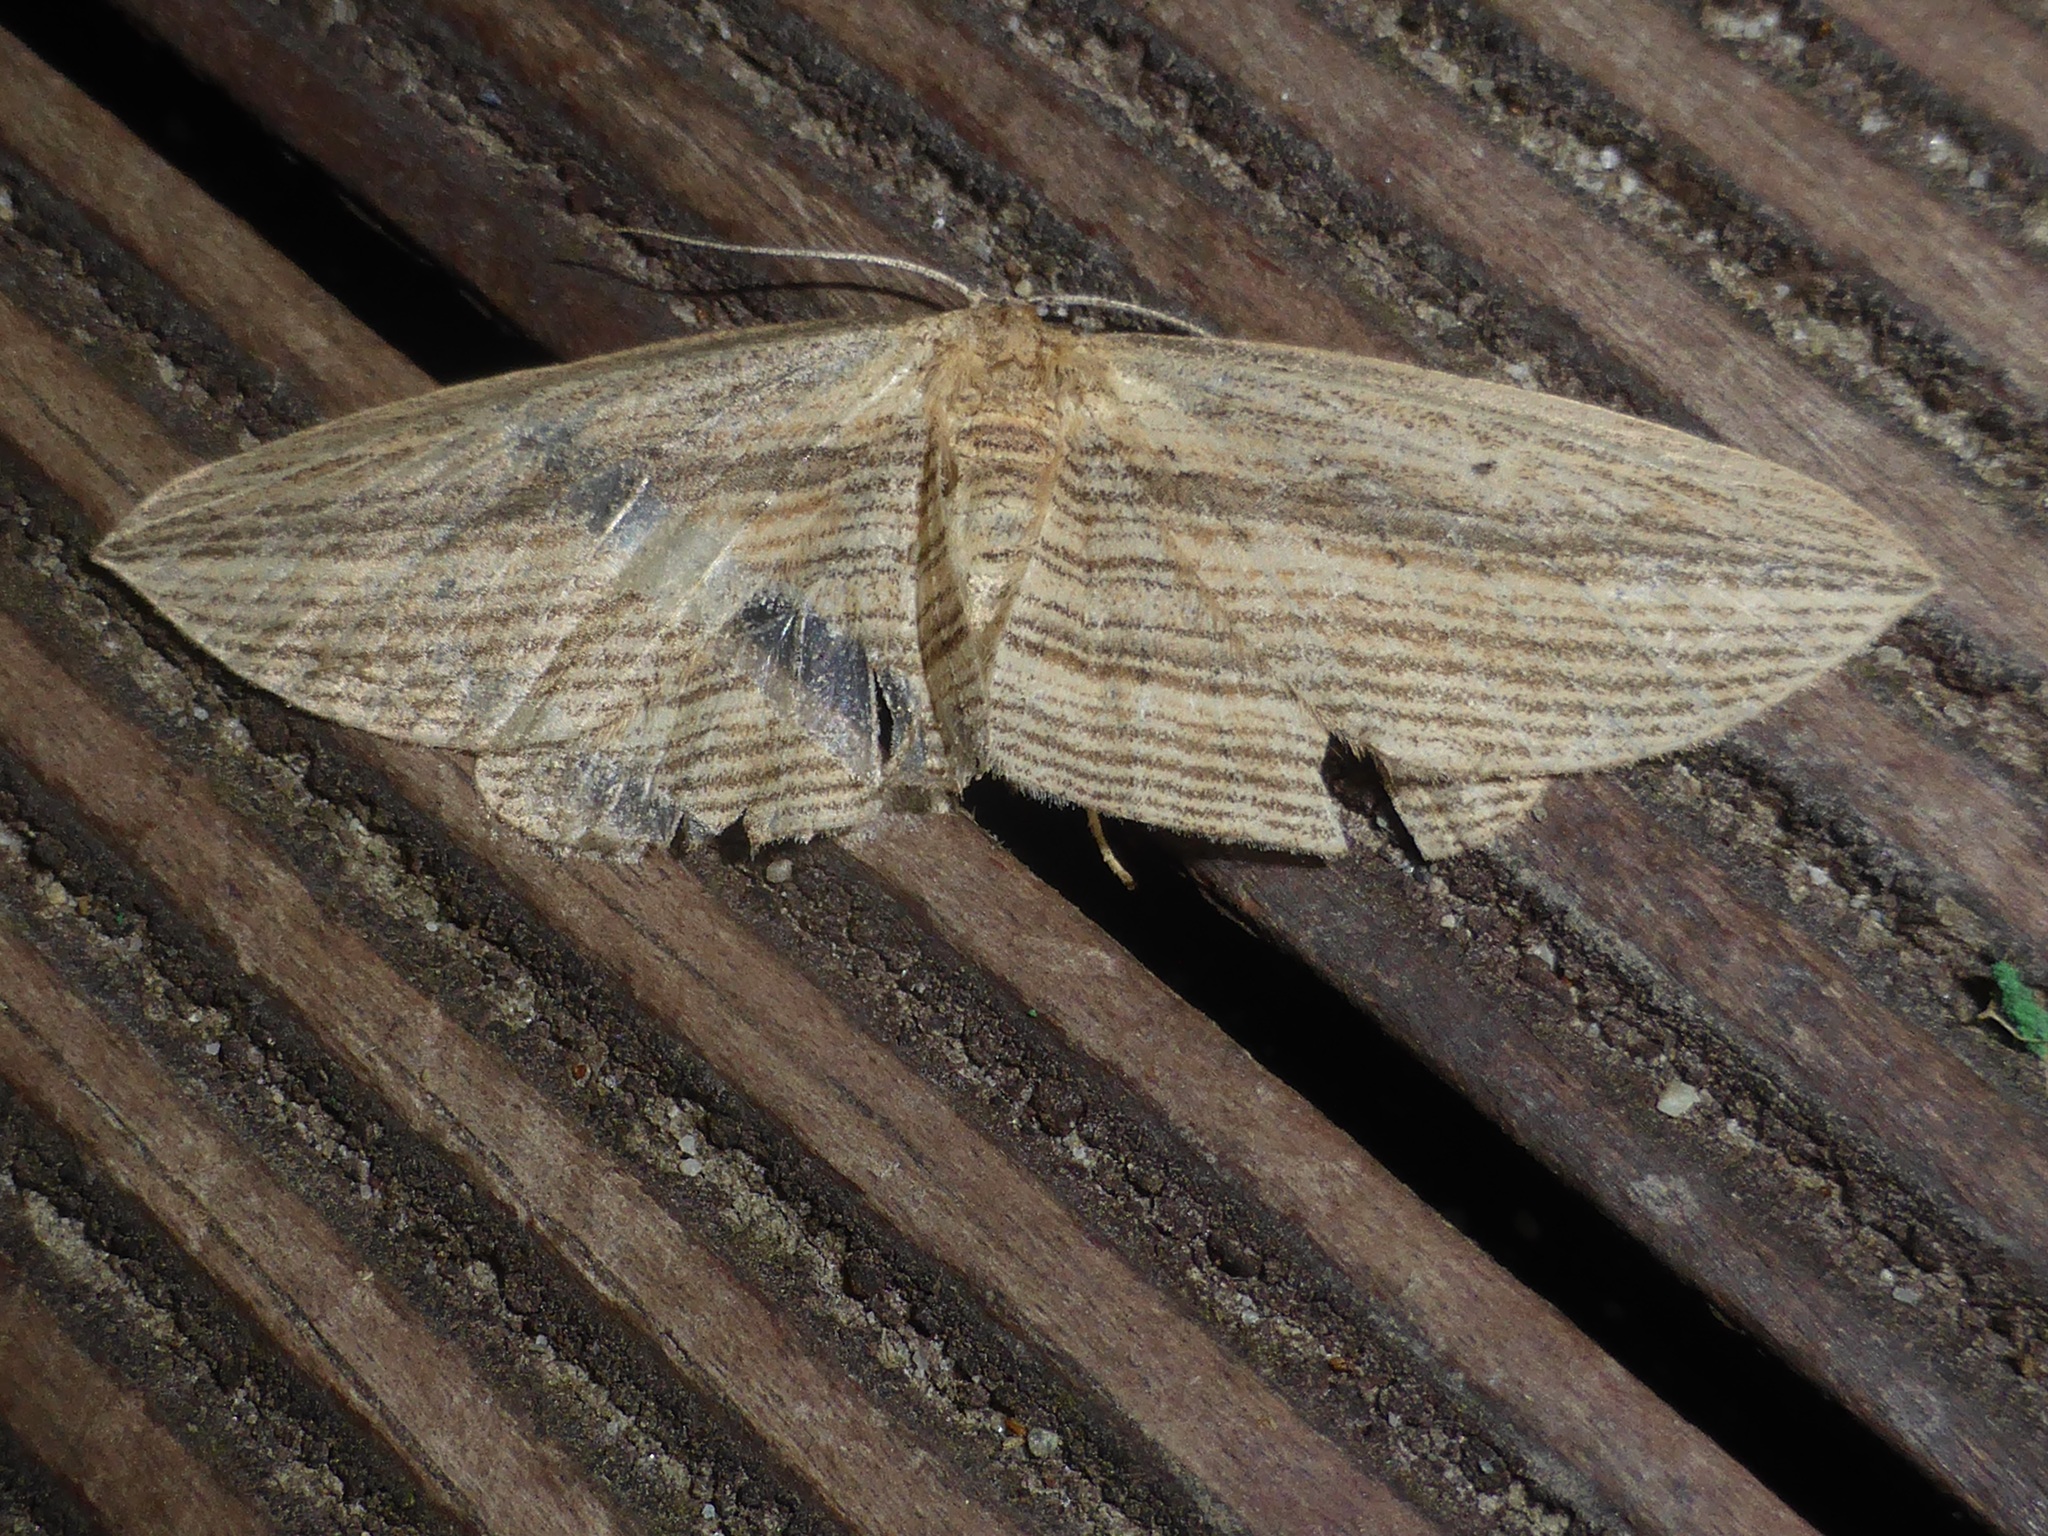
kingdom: Animalia
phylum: Arthropoda
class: Insecta
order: Lepidoptera
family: Geometridae
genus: Epiphryne
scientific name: Epiphryne verriculata
